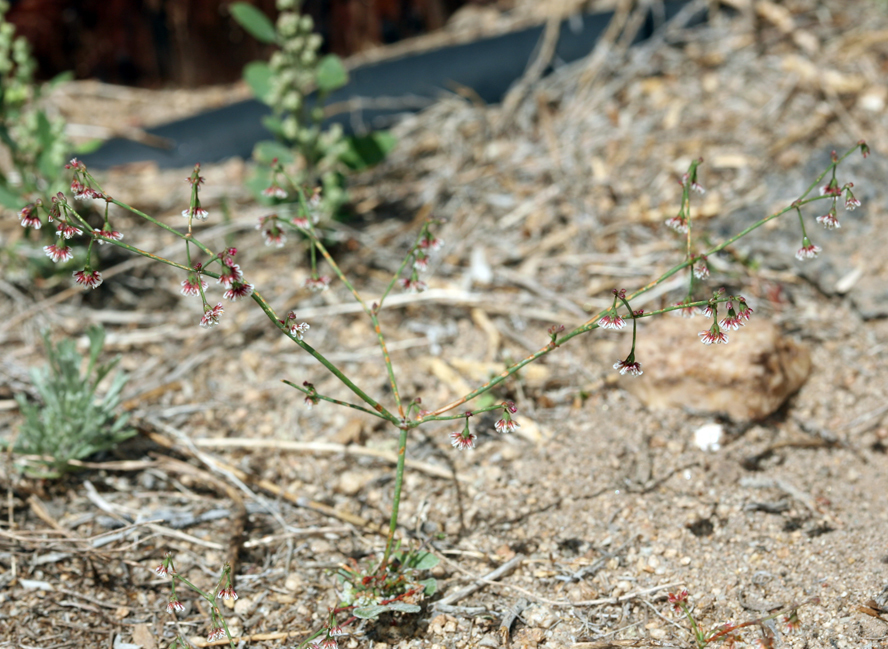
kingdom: Plantae
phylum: Tracheophyta
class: Magnoliopsida
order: Caryophyllales
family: Polygonaceae
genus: Eriogonum
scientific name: Eriogonum cernuum
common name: Nodding wild buckwheat
